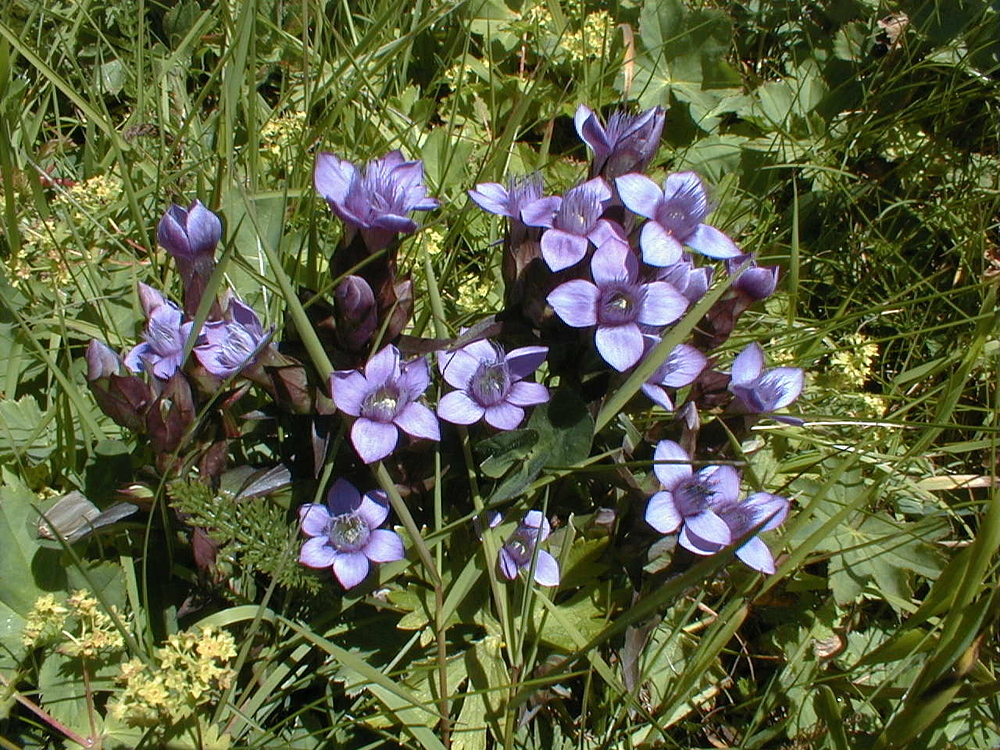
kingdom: Plantae
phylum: Tracheophyta
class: Magnoliopsida
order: Gentianales
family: Gentianaceae
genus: Gentianella
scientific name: Gentianella campestris
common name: Field gentian
